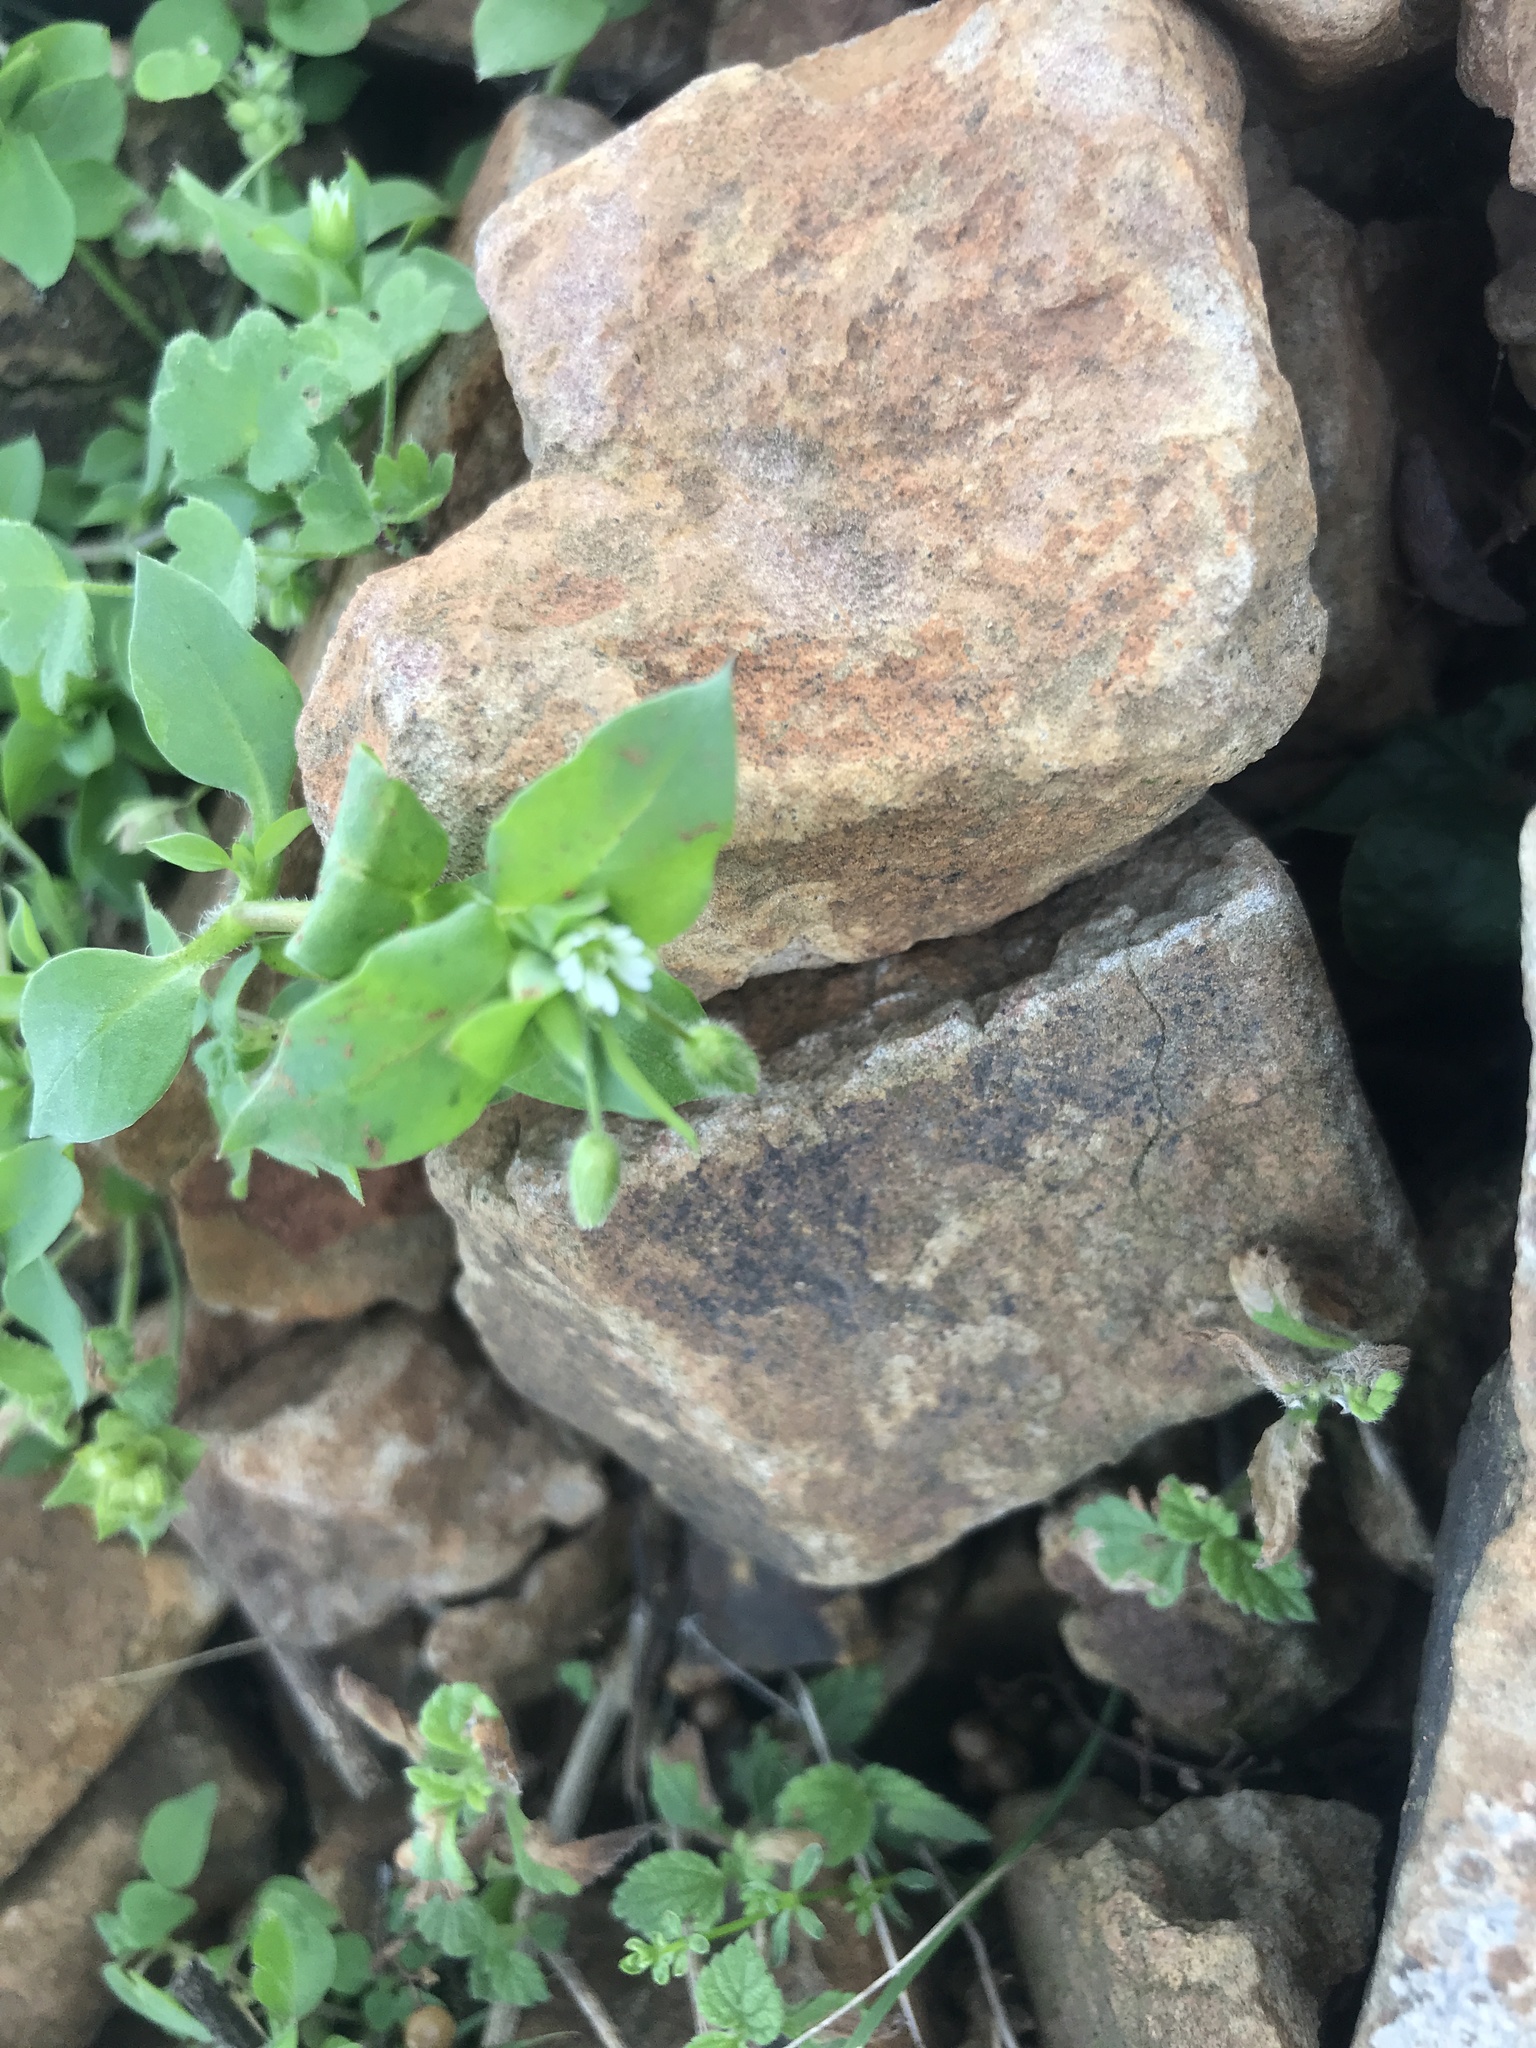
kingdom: Plantae
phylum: Tracheophyta
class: Magnoliopsida
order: Caryophyllales
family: Caryophyllaceae
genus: Stellaria
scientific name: Stellaria media
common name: Common chickweed
